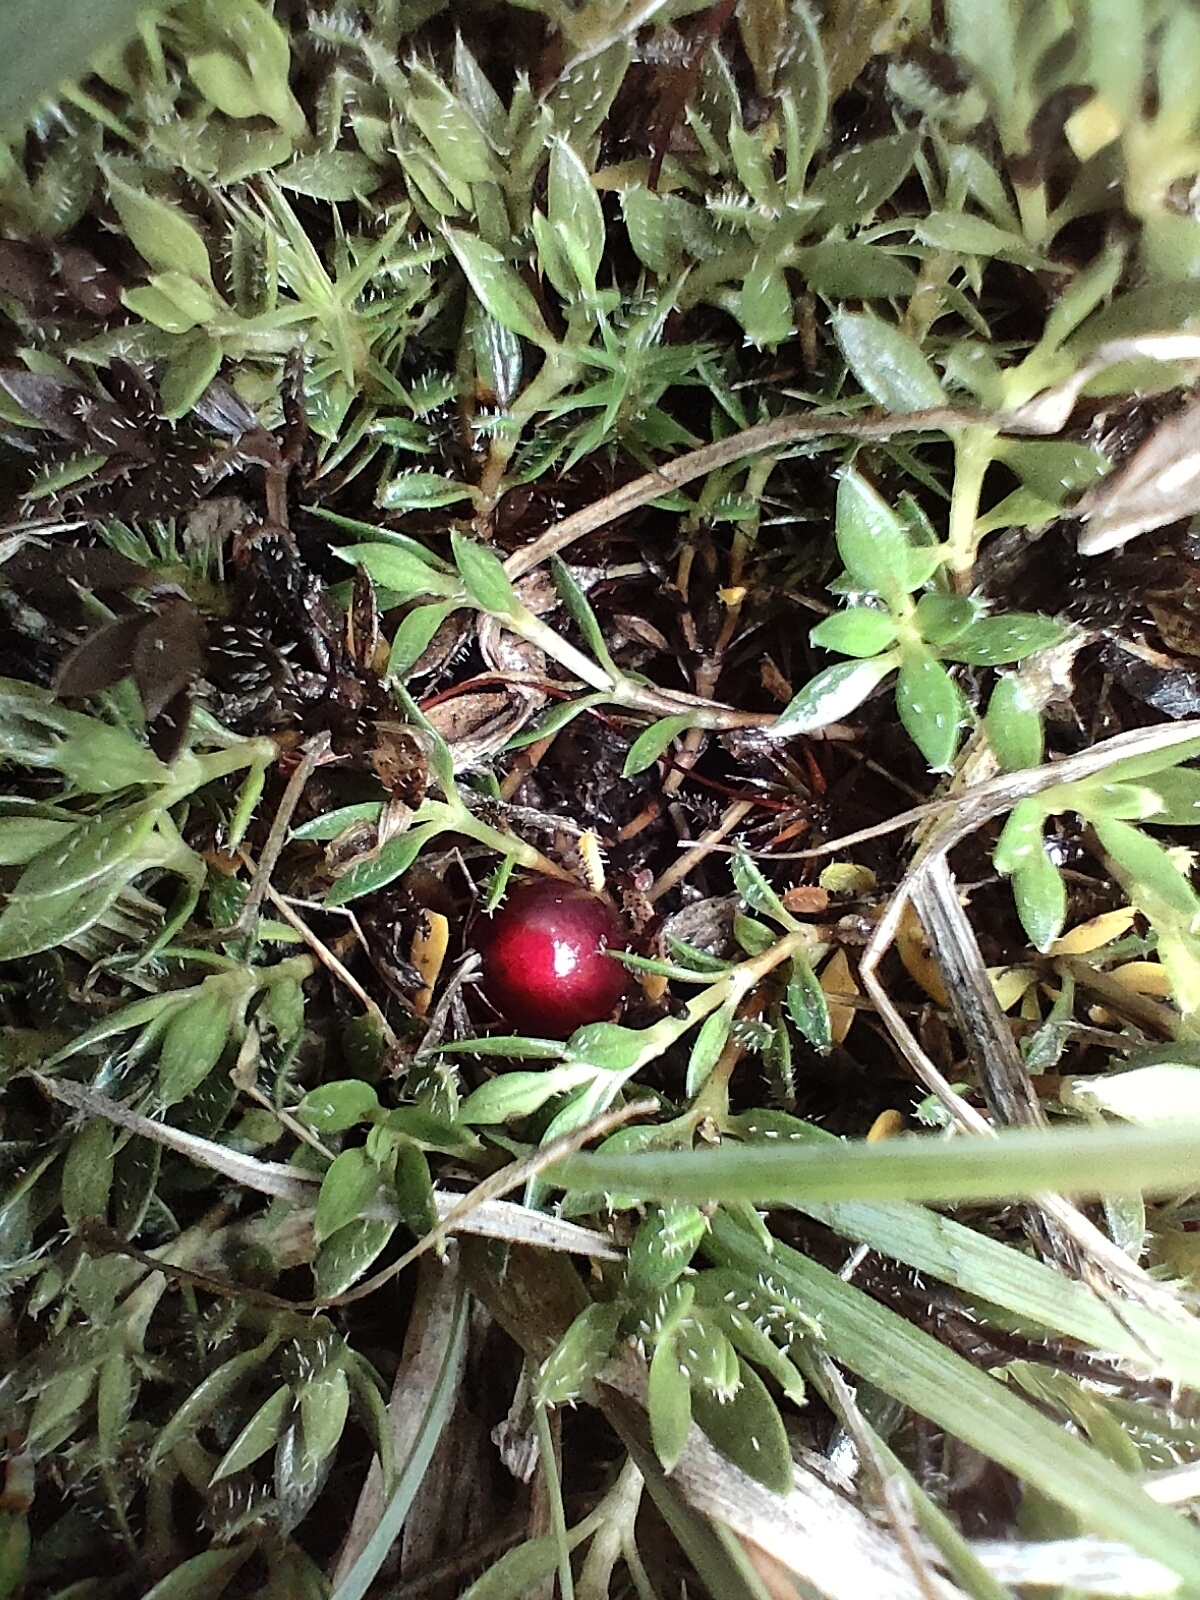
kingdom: Plantae
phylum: Tracheophyta
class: Magnoliopsida
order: Gentianales
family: Rubiaceae
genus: Coprosma
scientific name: Coprosma atropurpurea
